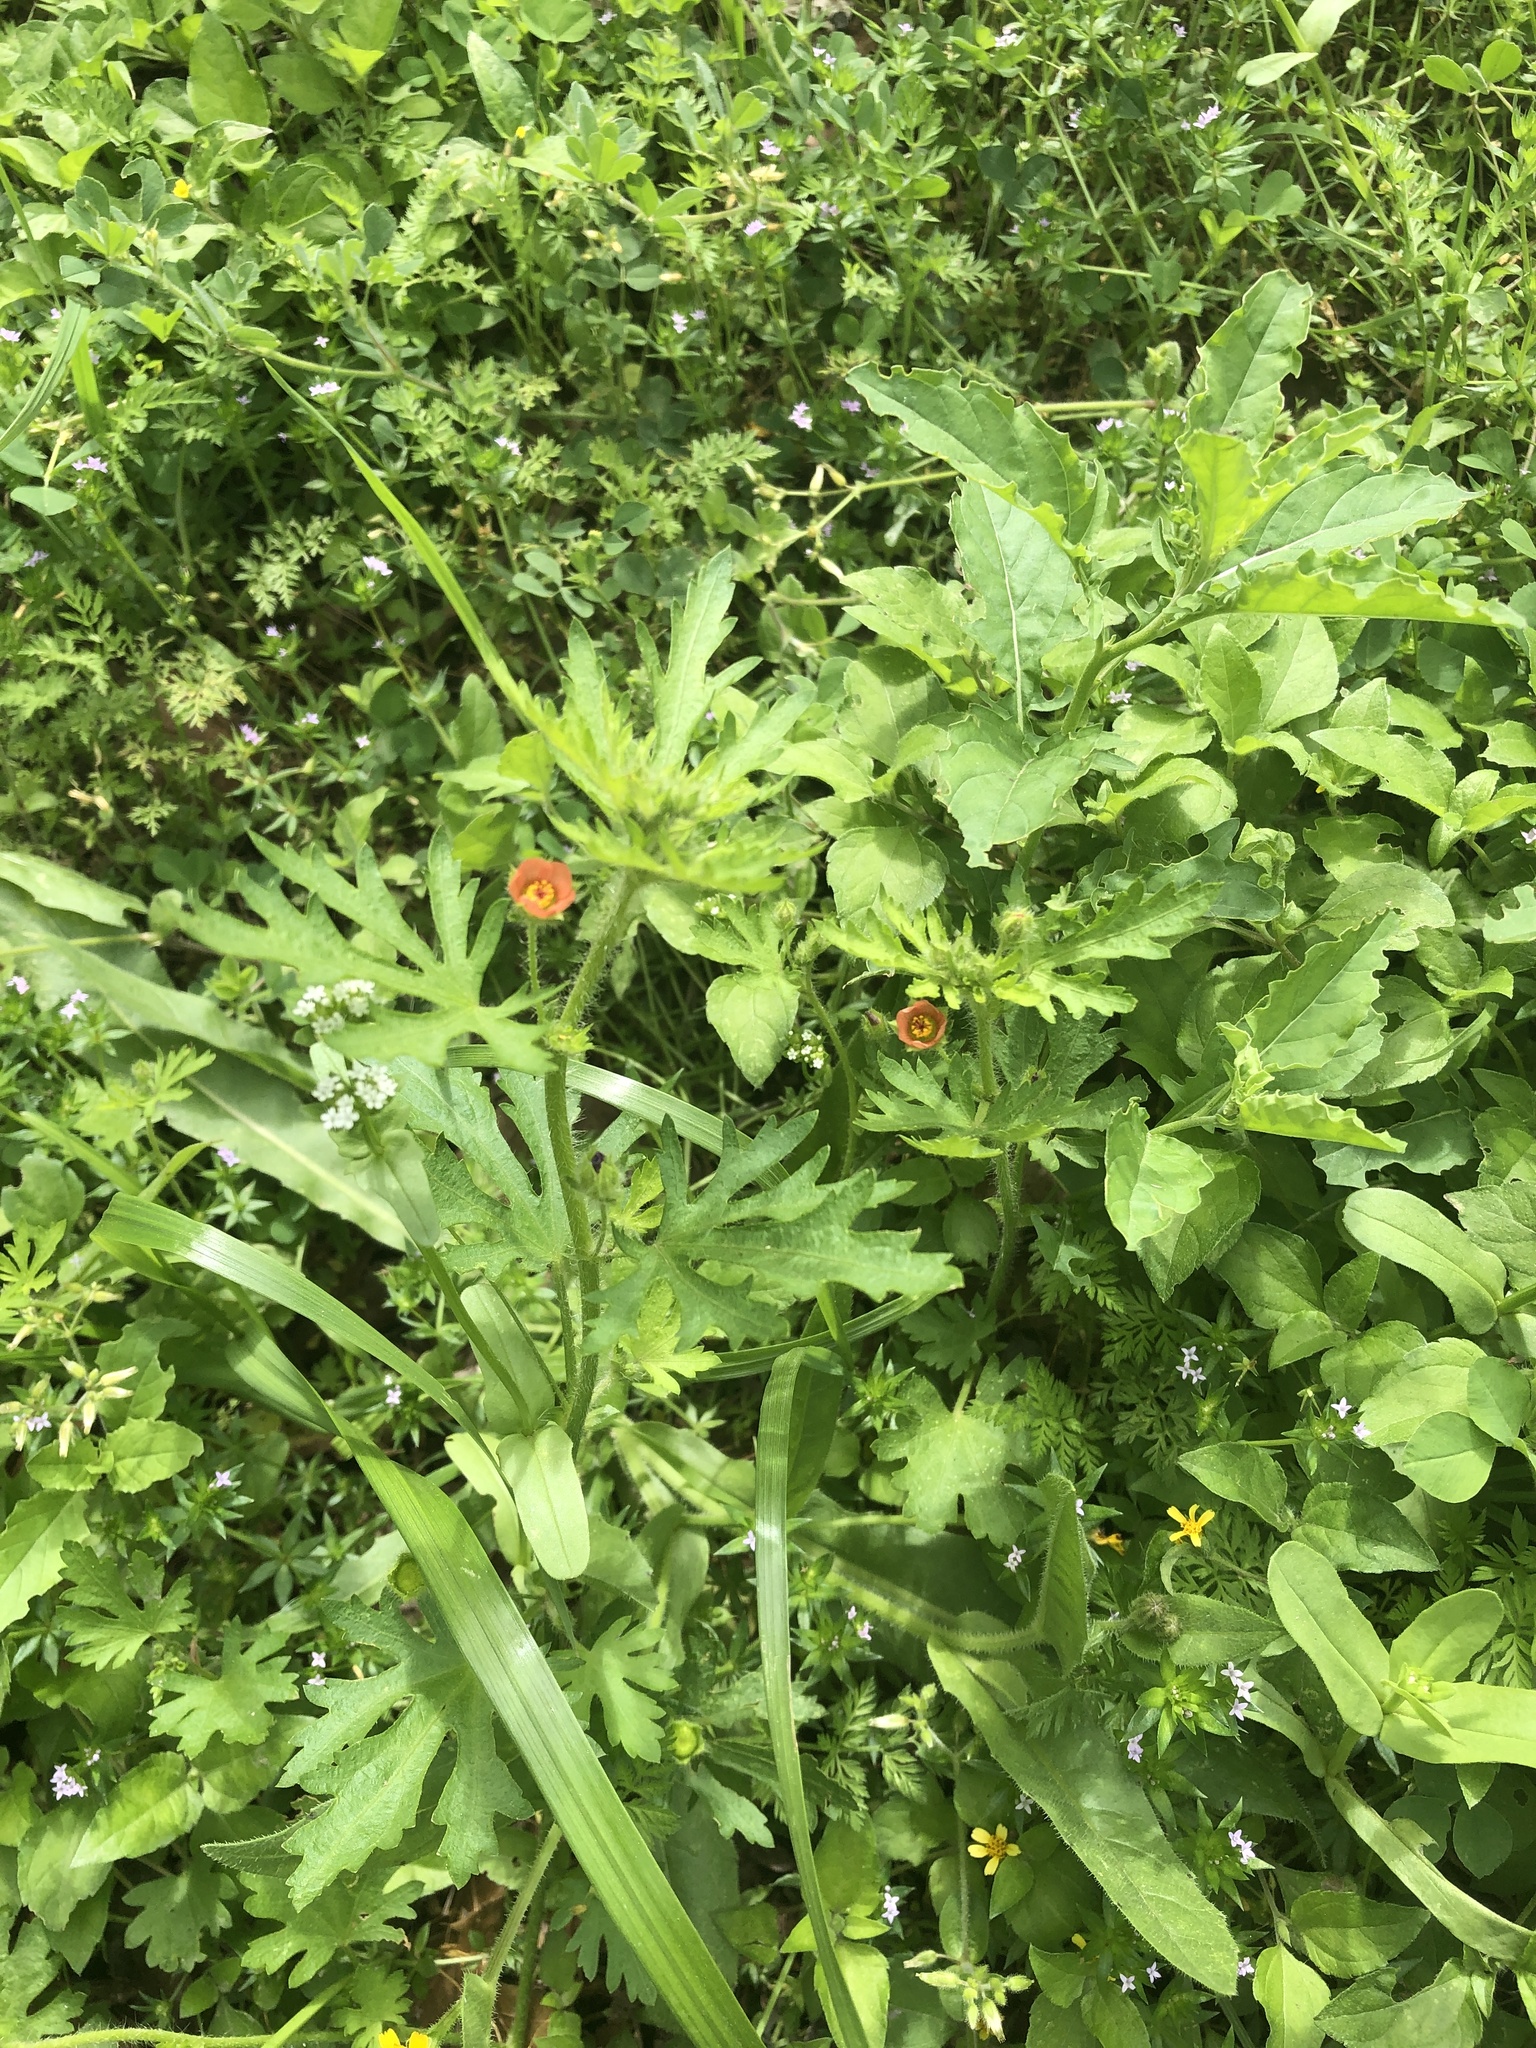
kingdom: Plantae
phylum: Tracheophyta
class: Magnoliopsida
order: Malvales
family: Malvaceae
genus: Modiola
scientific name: Modiola caroliniana
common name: Carolina bristlemallow
